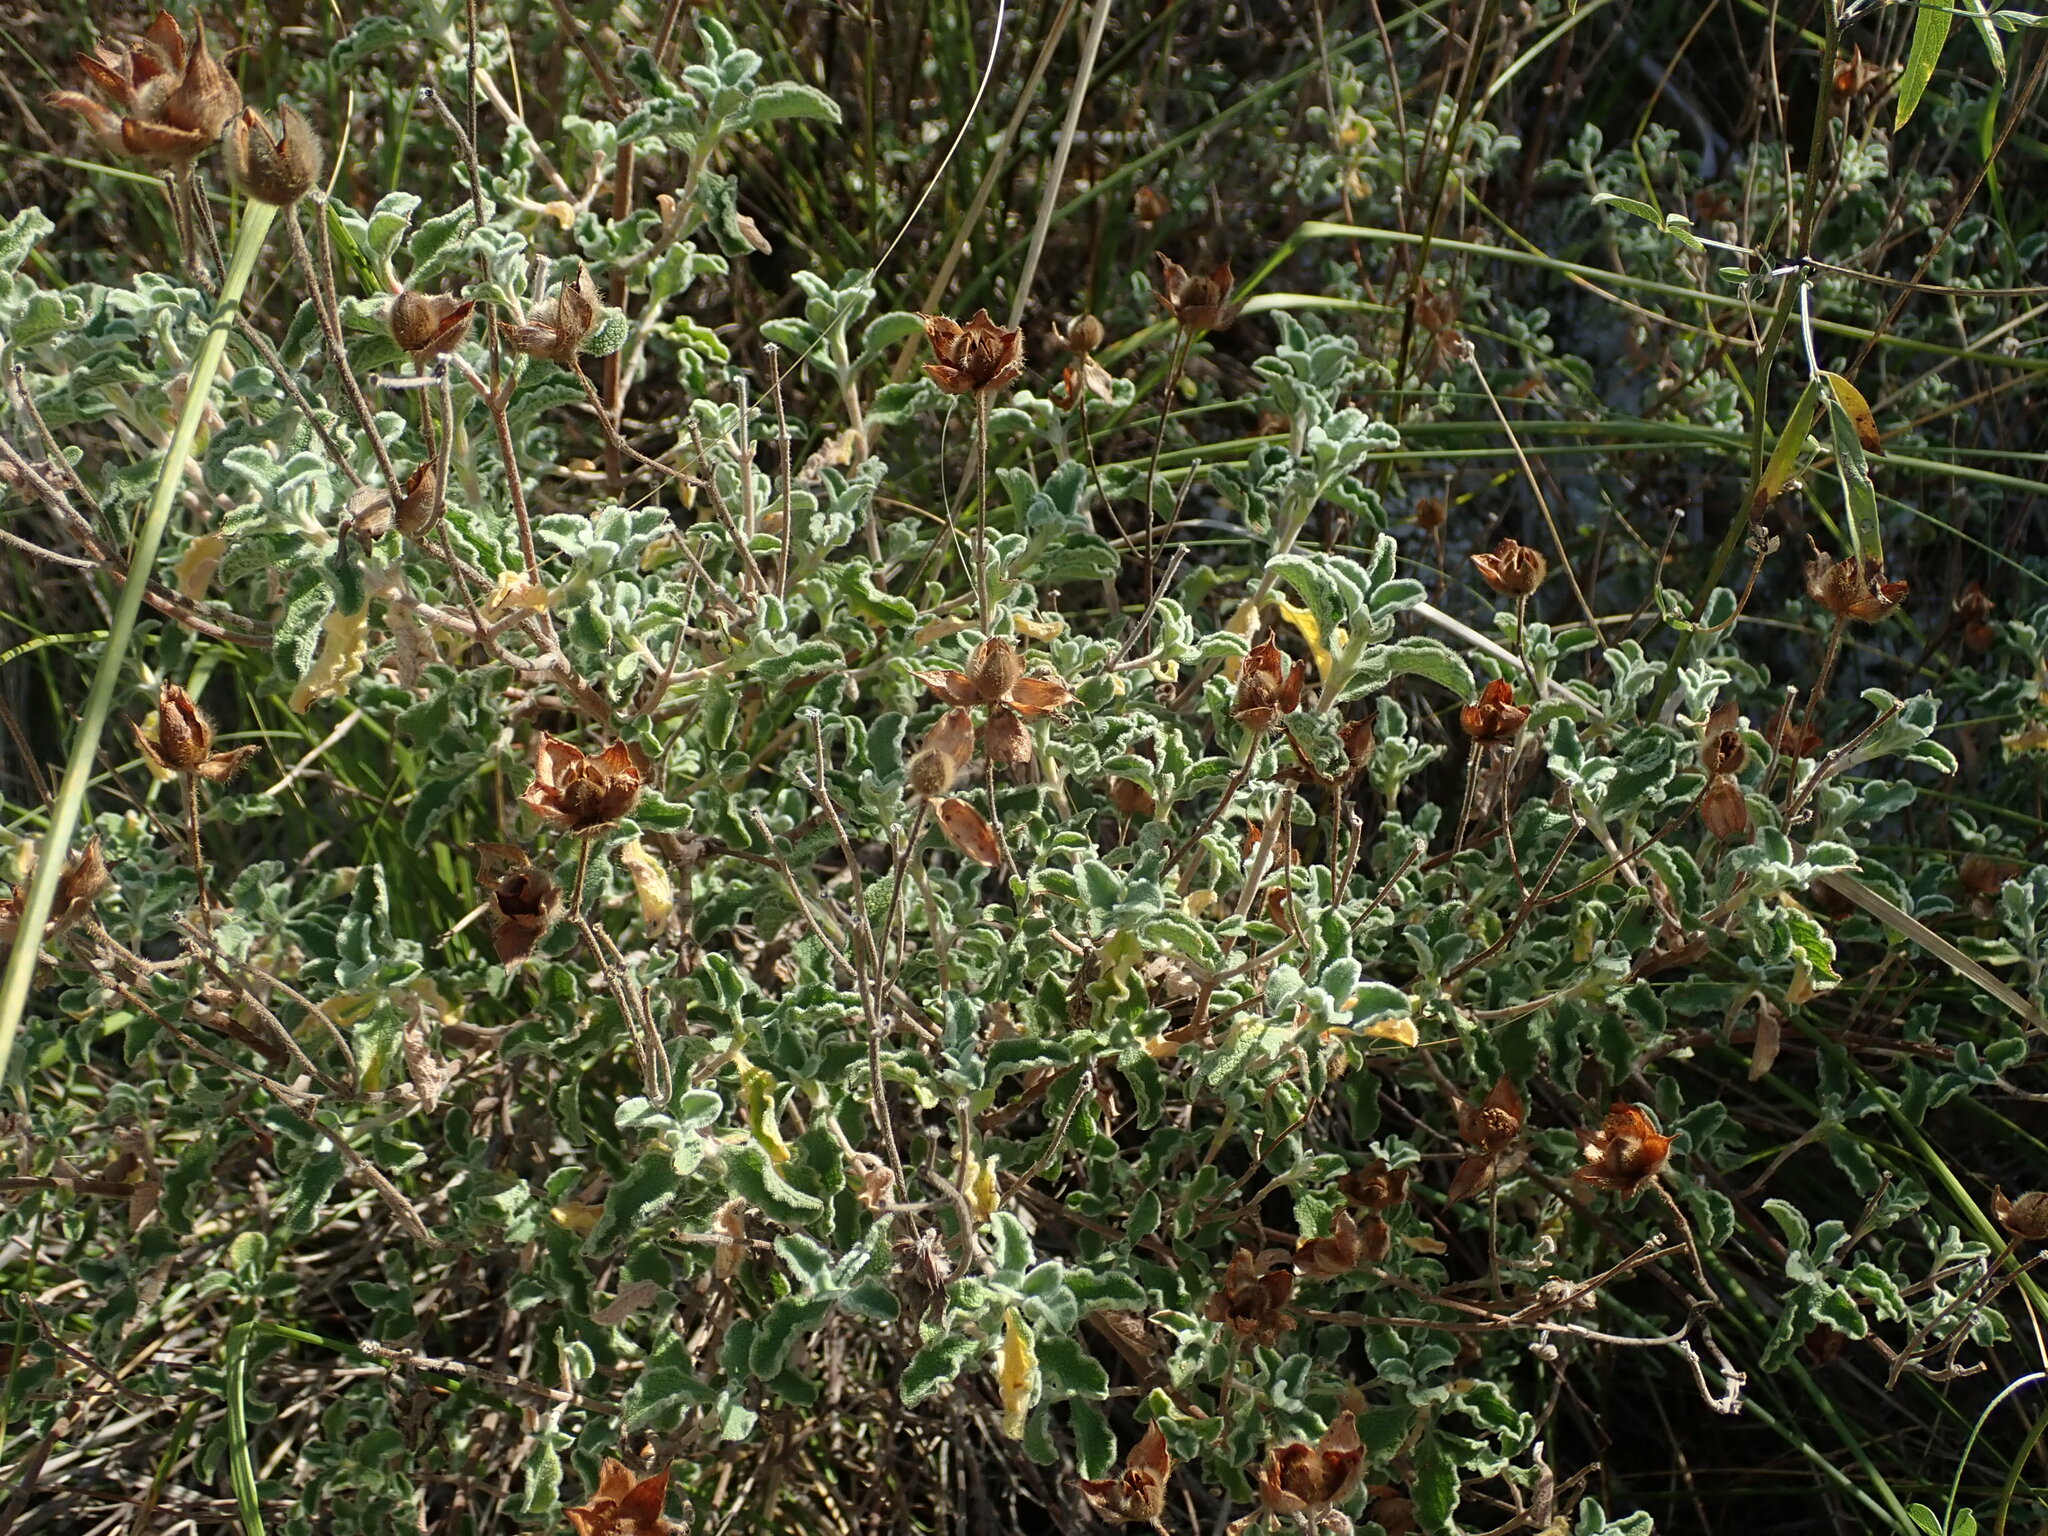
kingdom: Plantae
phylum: Tracheophyta
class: Magnoliopsida
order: Malvales
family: Cistaceae
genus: Cistus
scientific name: Cistus creticus
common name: Cretan rockrose
